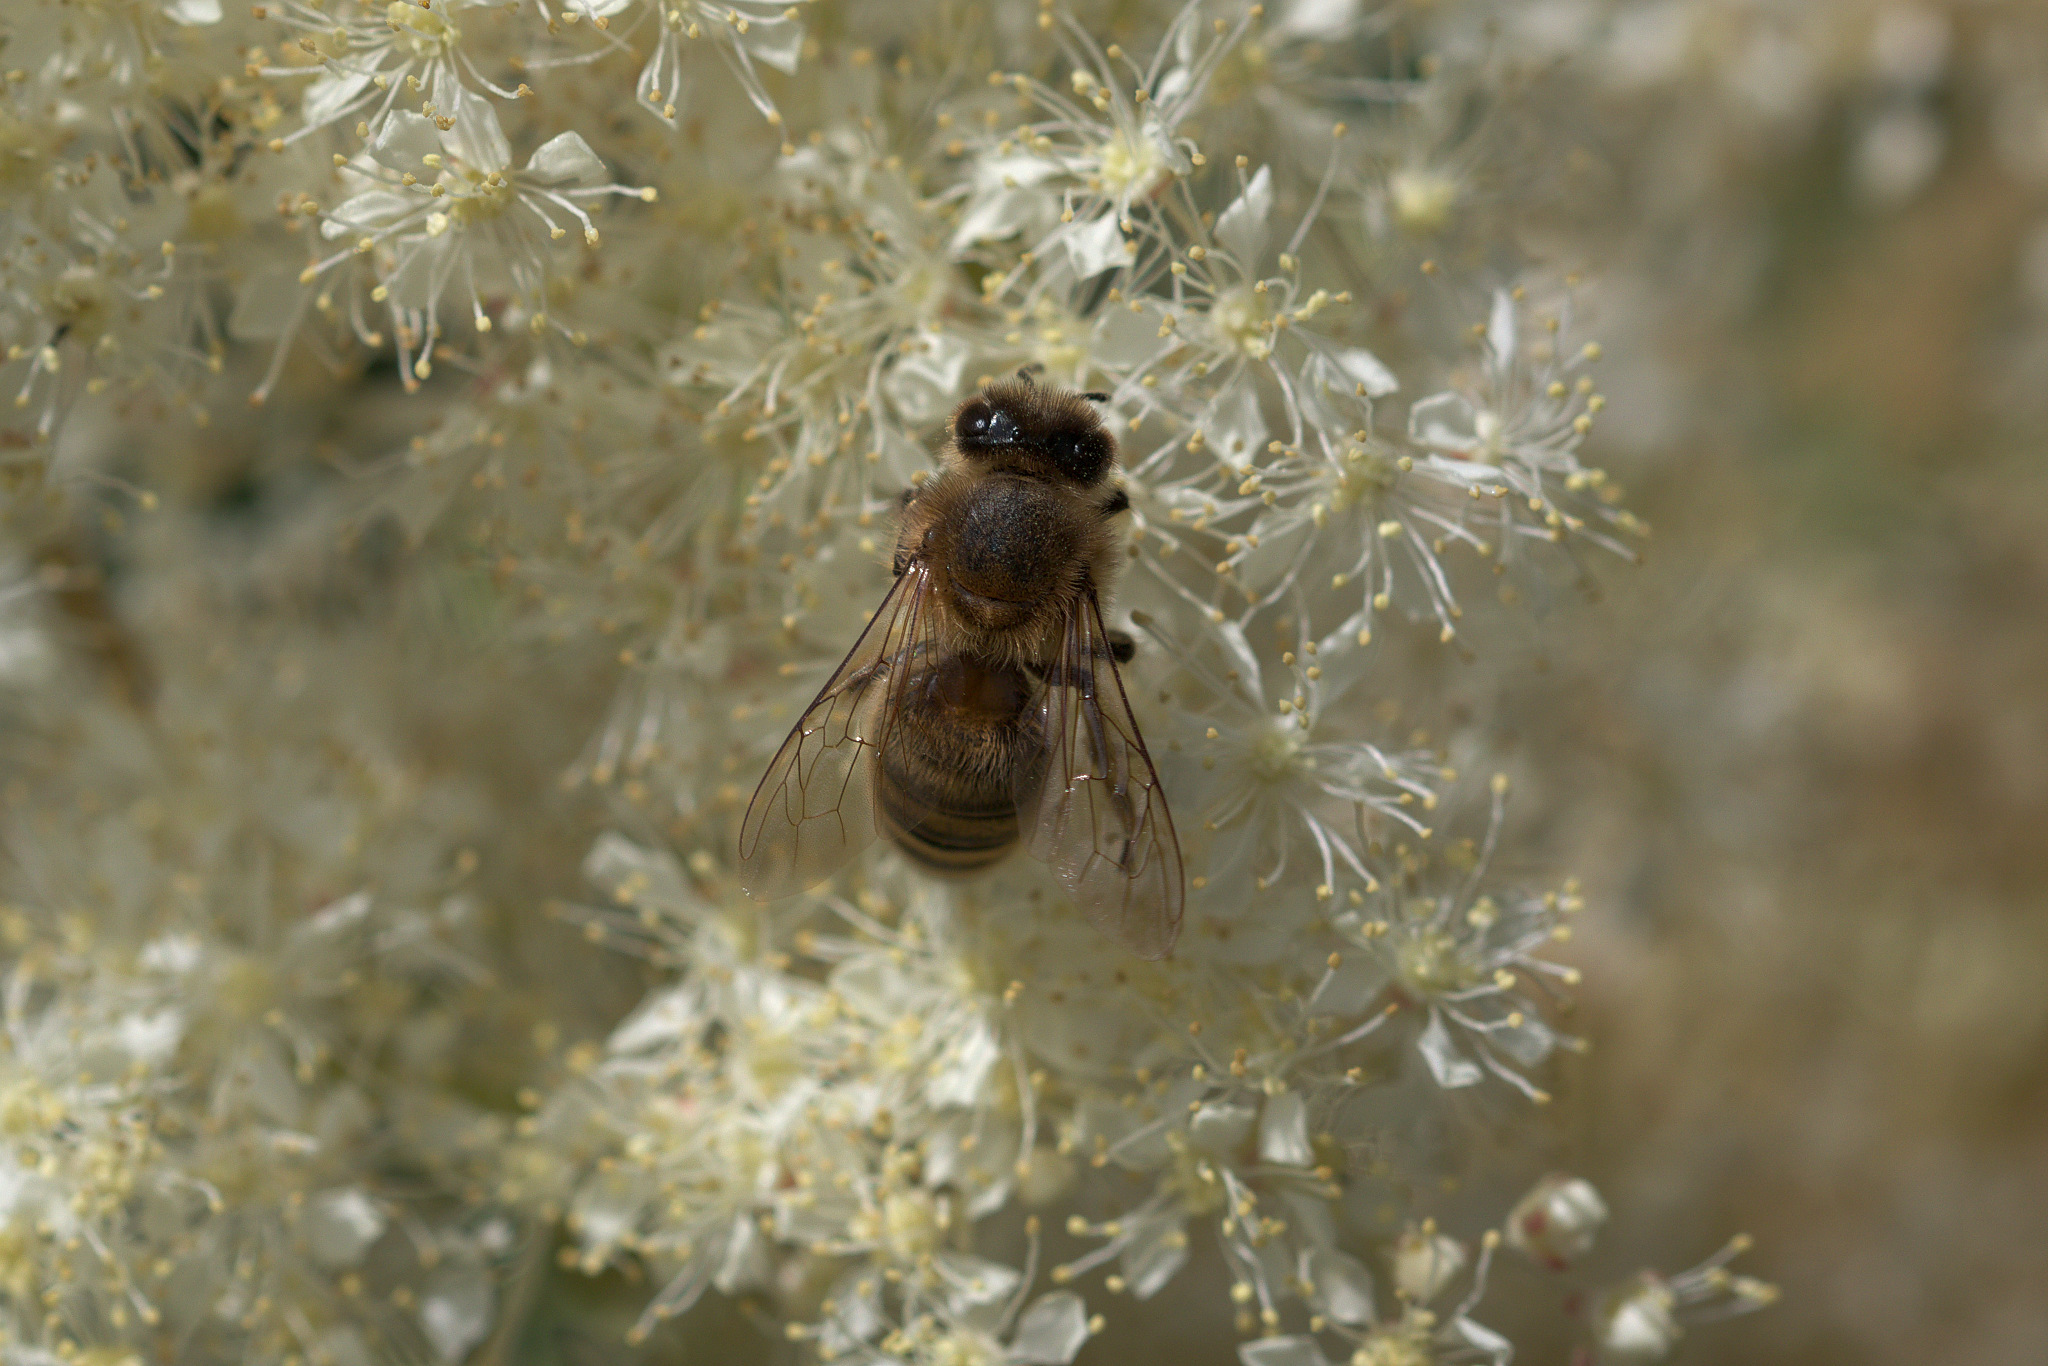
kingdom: Animalia
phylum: Arthropoda
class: Insecta
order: Hymenoptera
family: Apidae
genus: Apis
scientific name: Apis mellifera
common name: Honey bee
